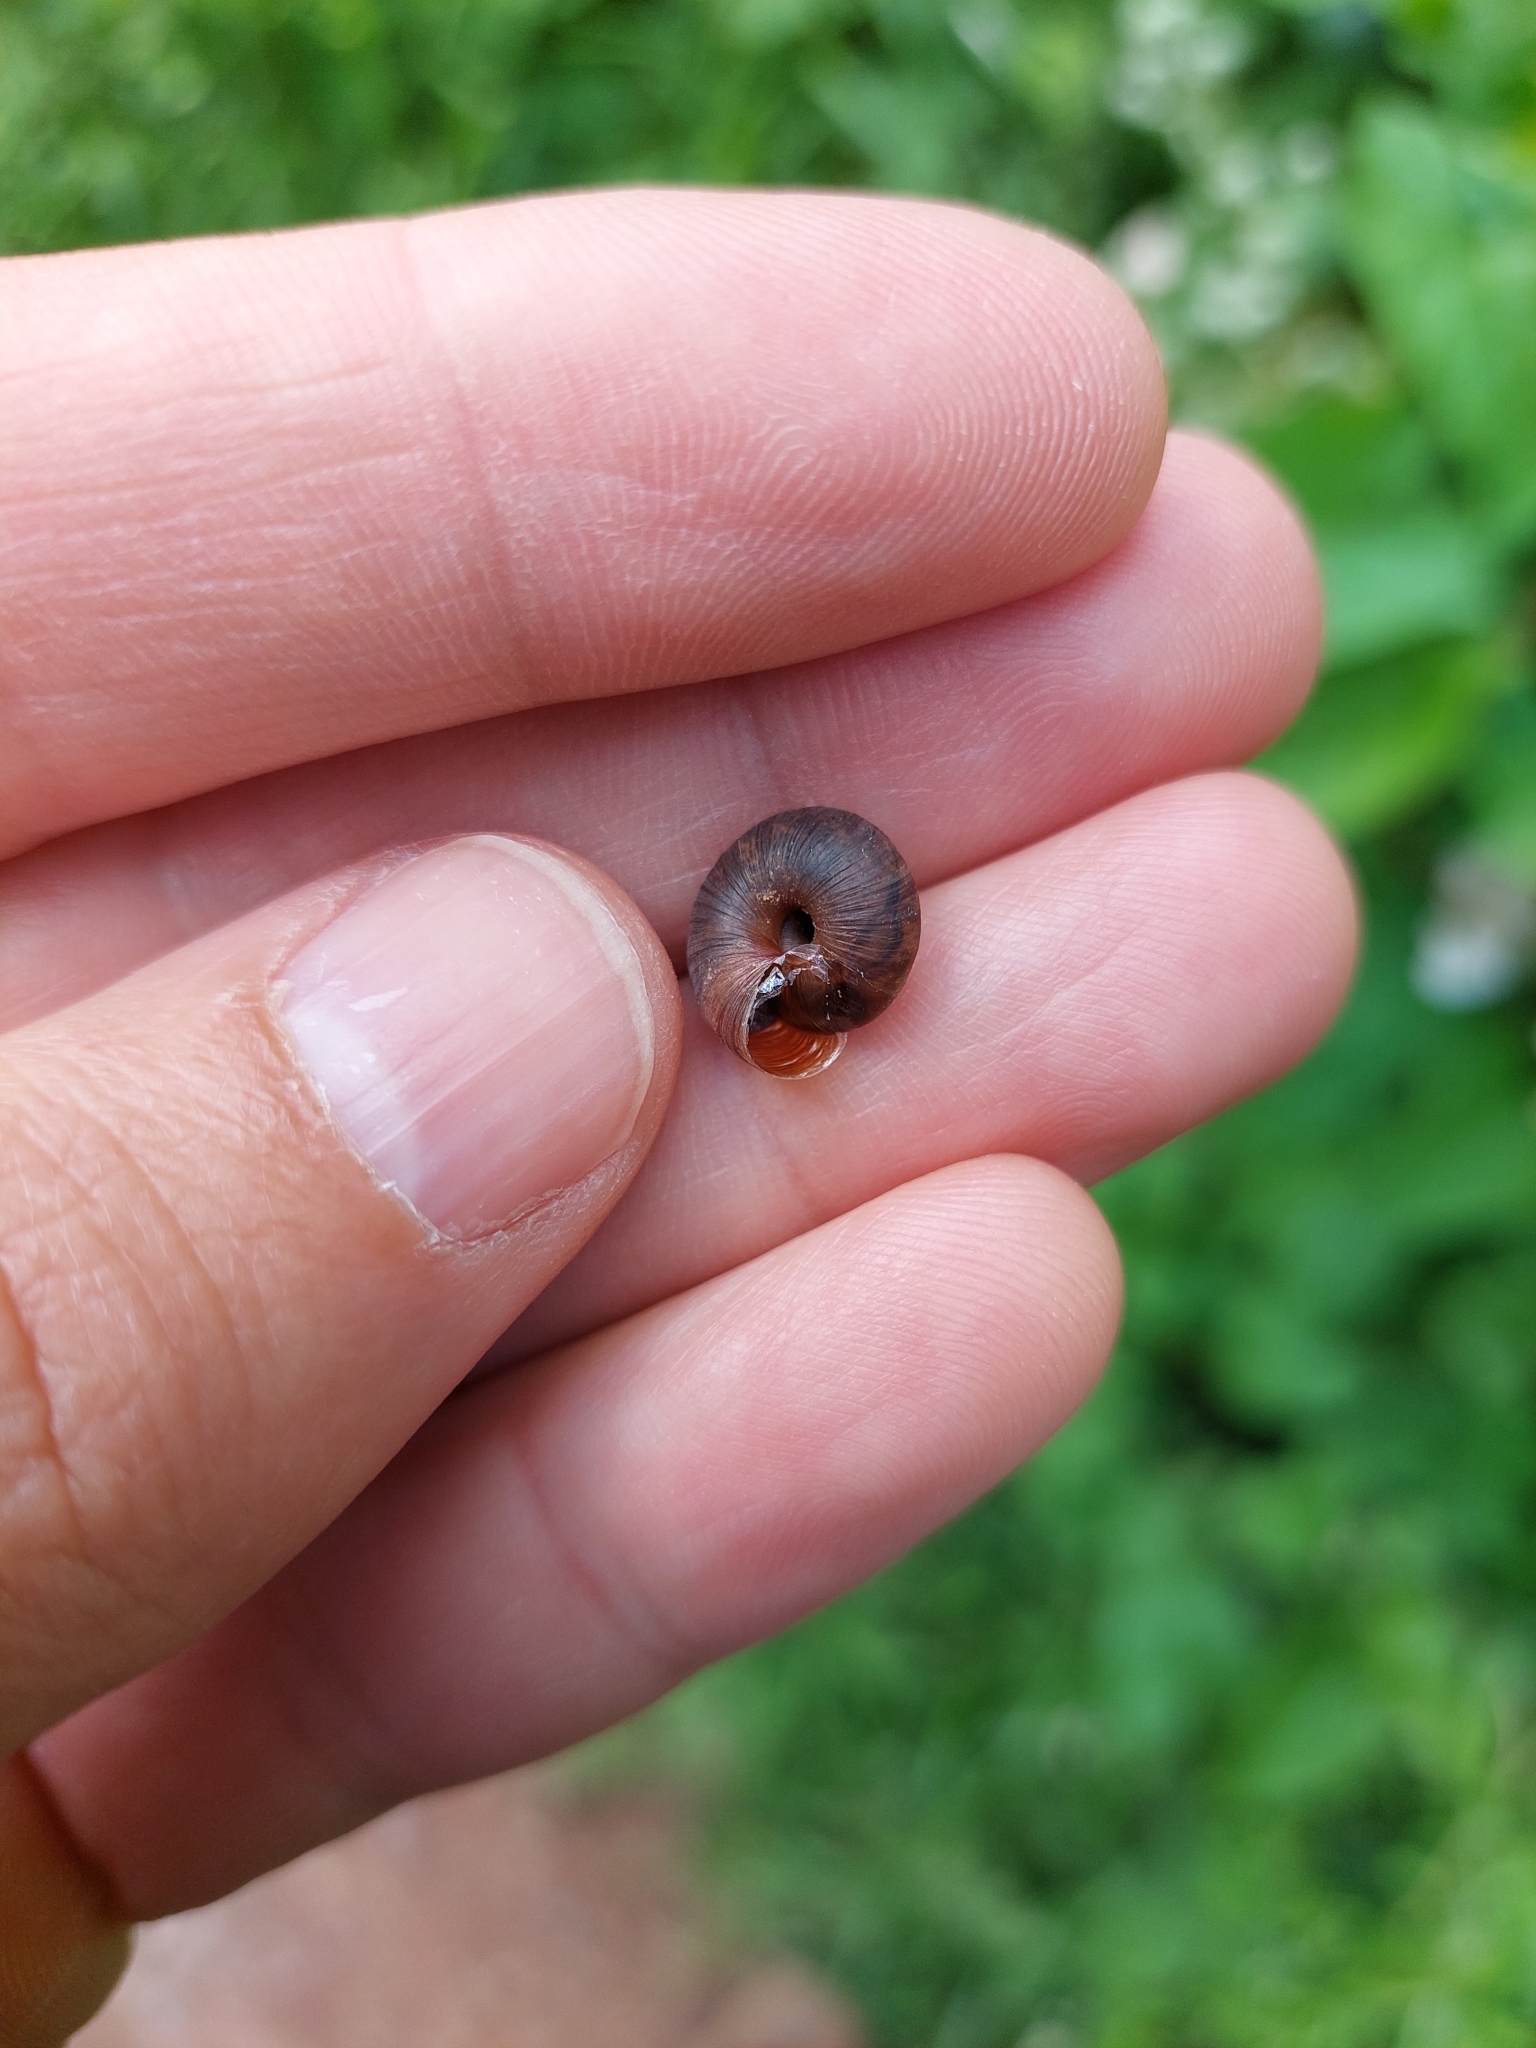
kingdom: Animalia
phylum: Mollusca
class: Gastropoda
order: Stylommatophora
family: Hygromiidae
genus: Trochulus
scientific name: Trochulus striolatus
